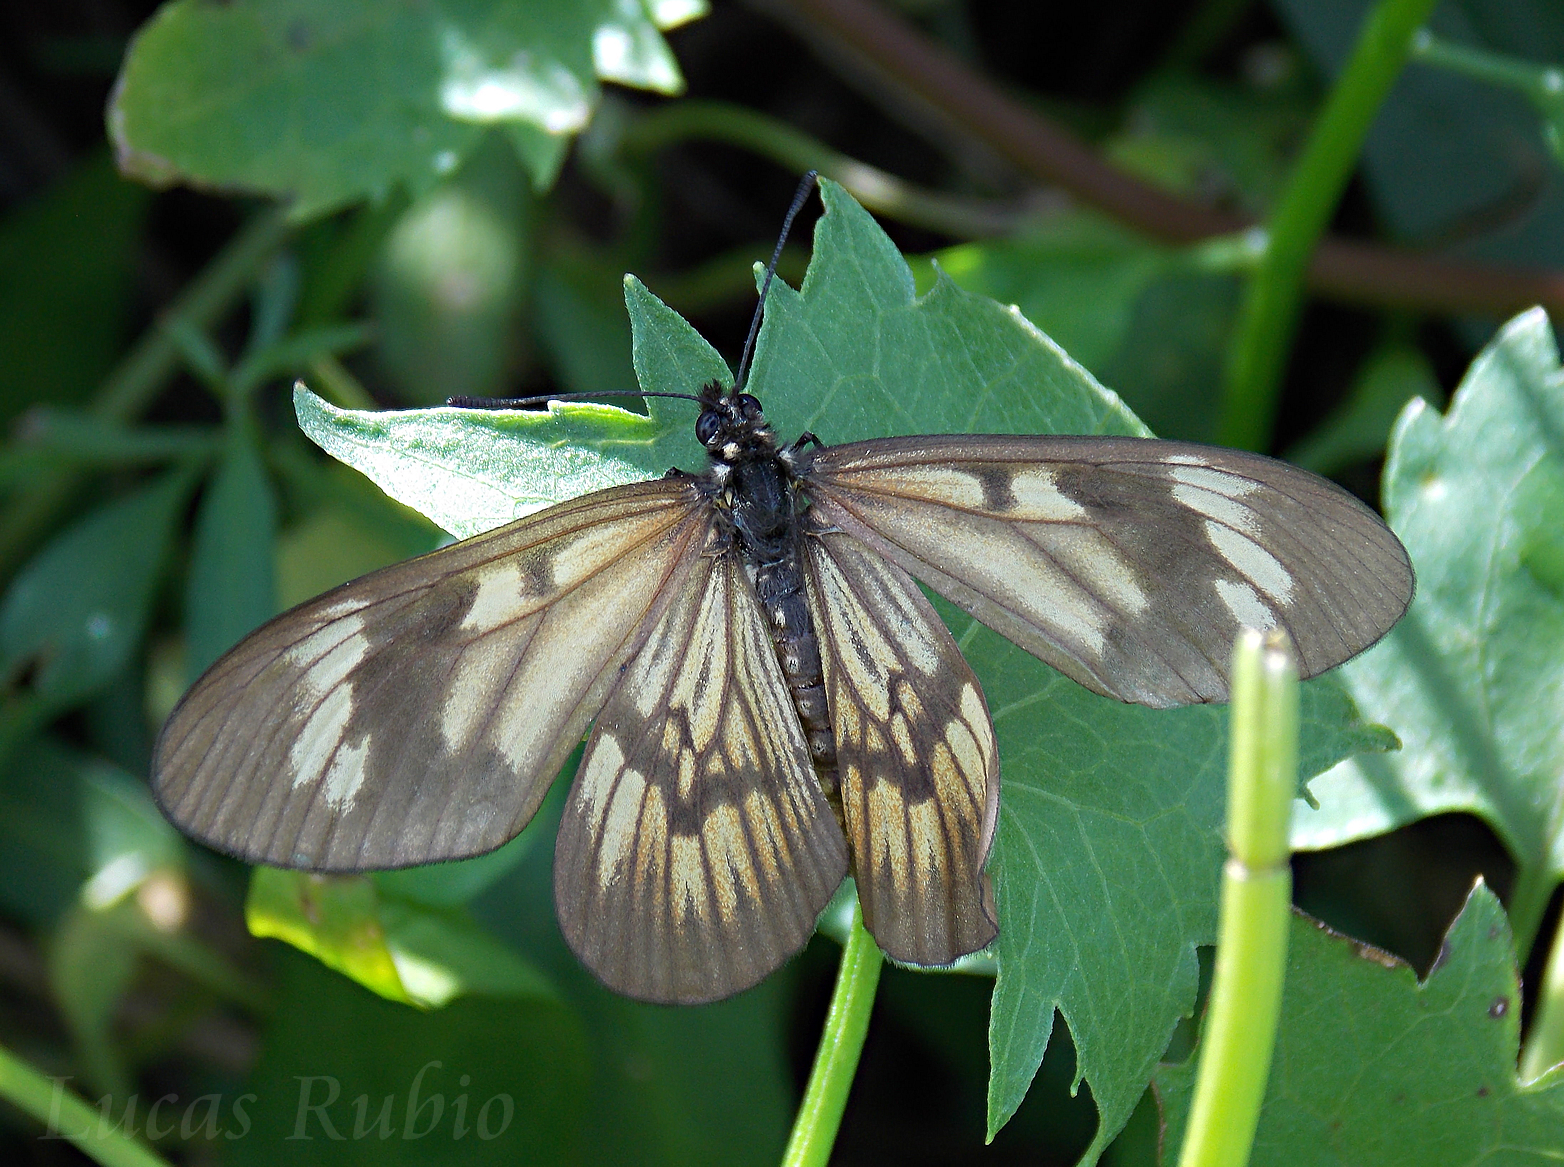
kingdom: Animalia
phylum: Arthropoda
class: Insecta
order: Lepidoptera
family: Nymphalidae
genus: Acraea
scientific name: Acraea momina
